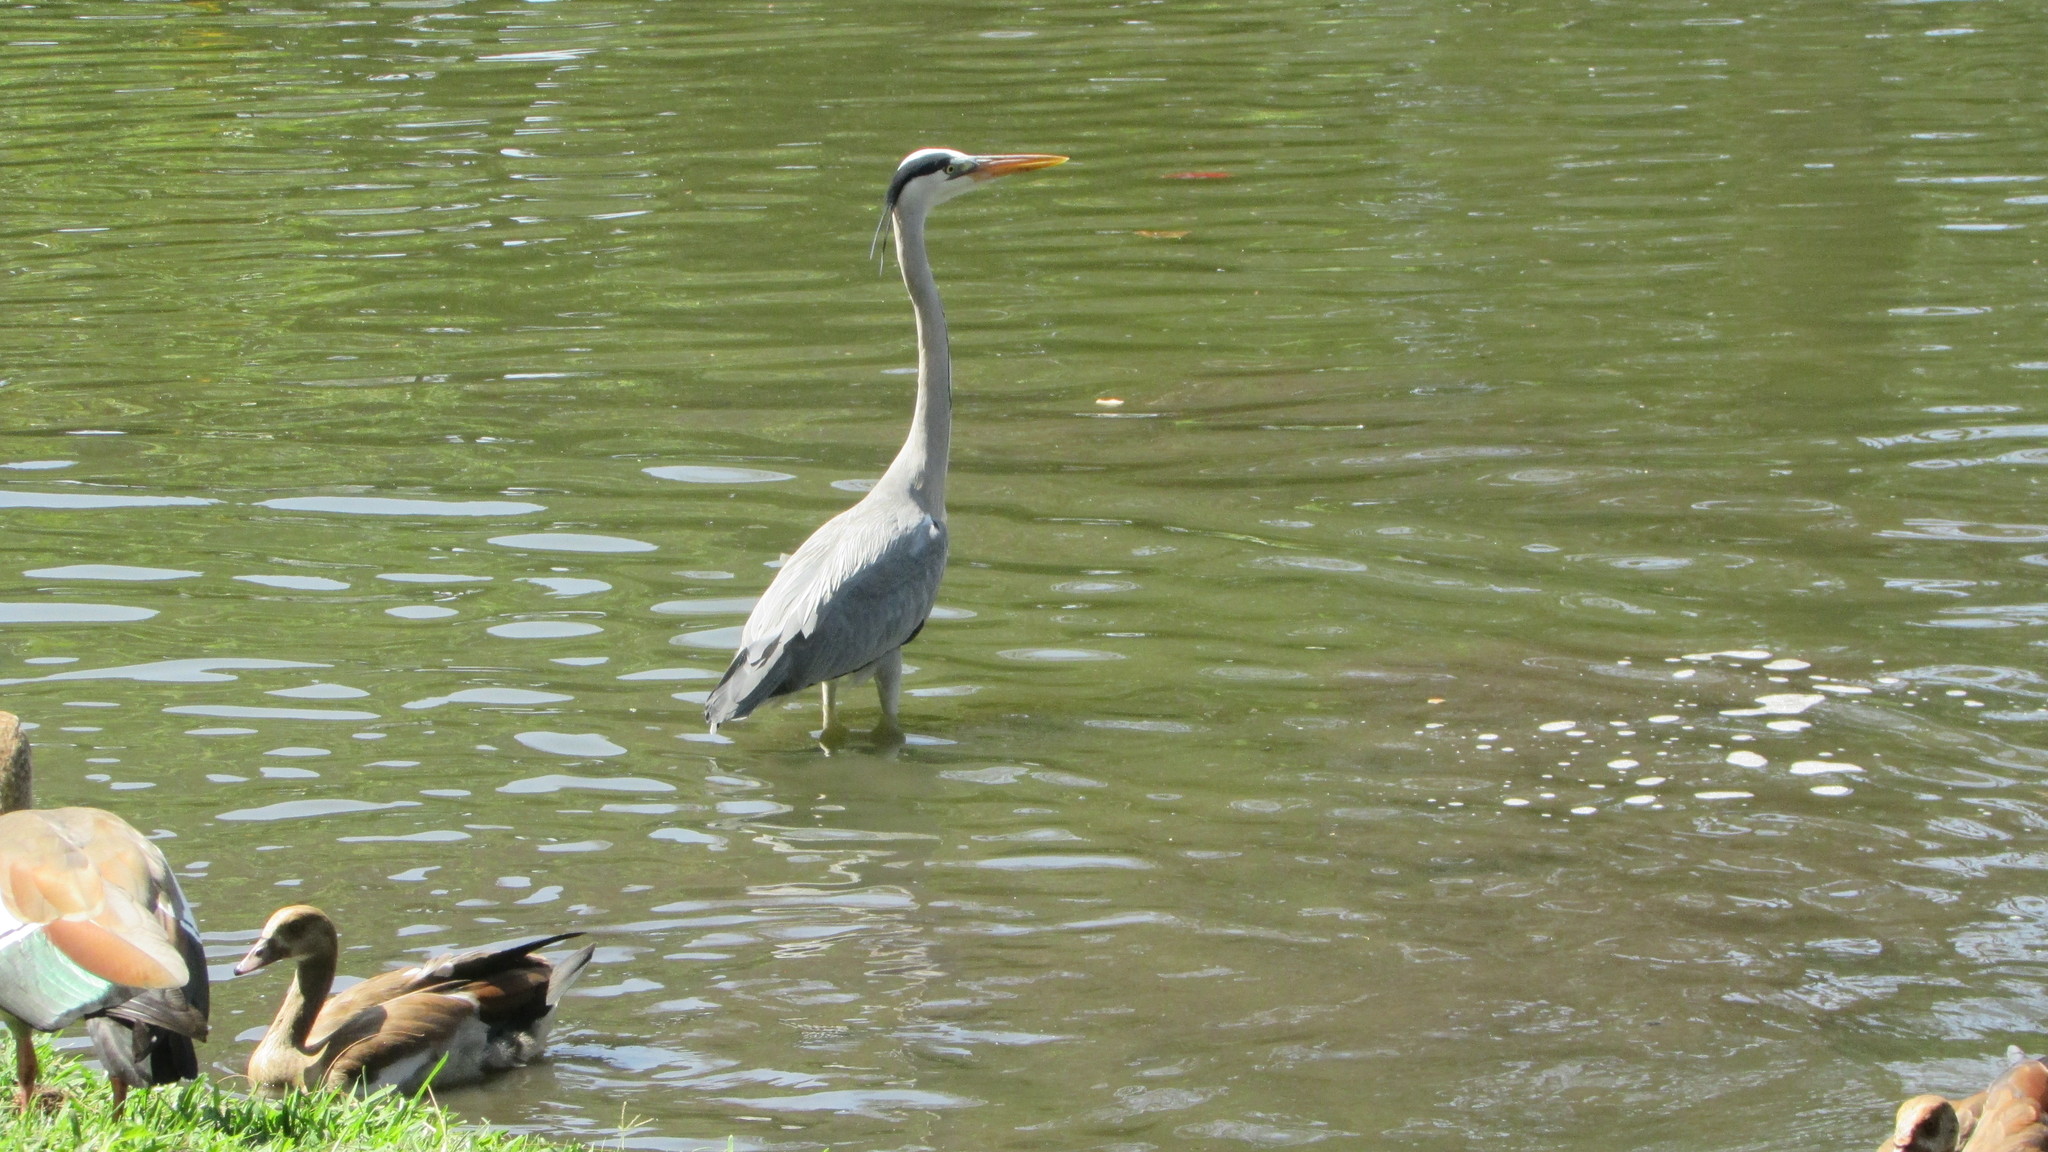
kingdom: Animalia
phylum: Chordata
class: Aves
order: Pelecaniformes
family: Ardeidae
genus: Ardea
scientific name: Ardea cinerea
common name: Grey heron
